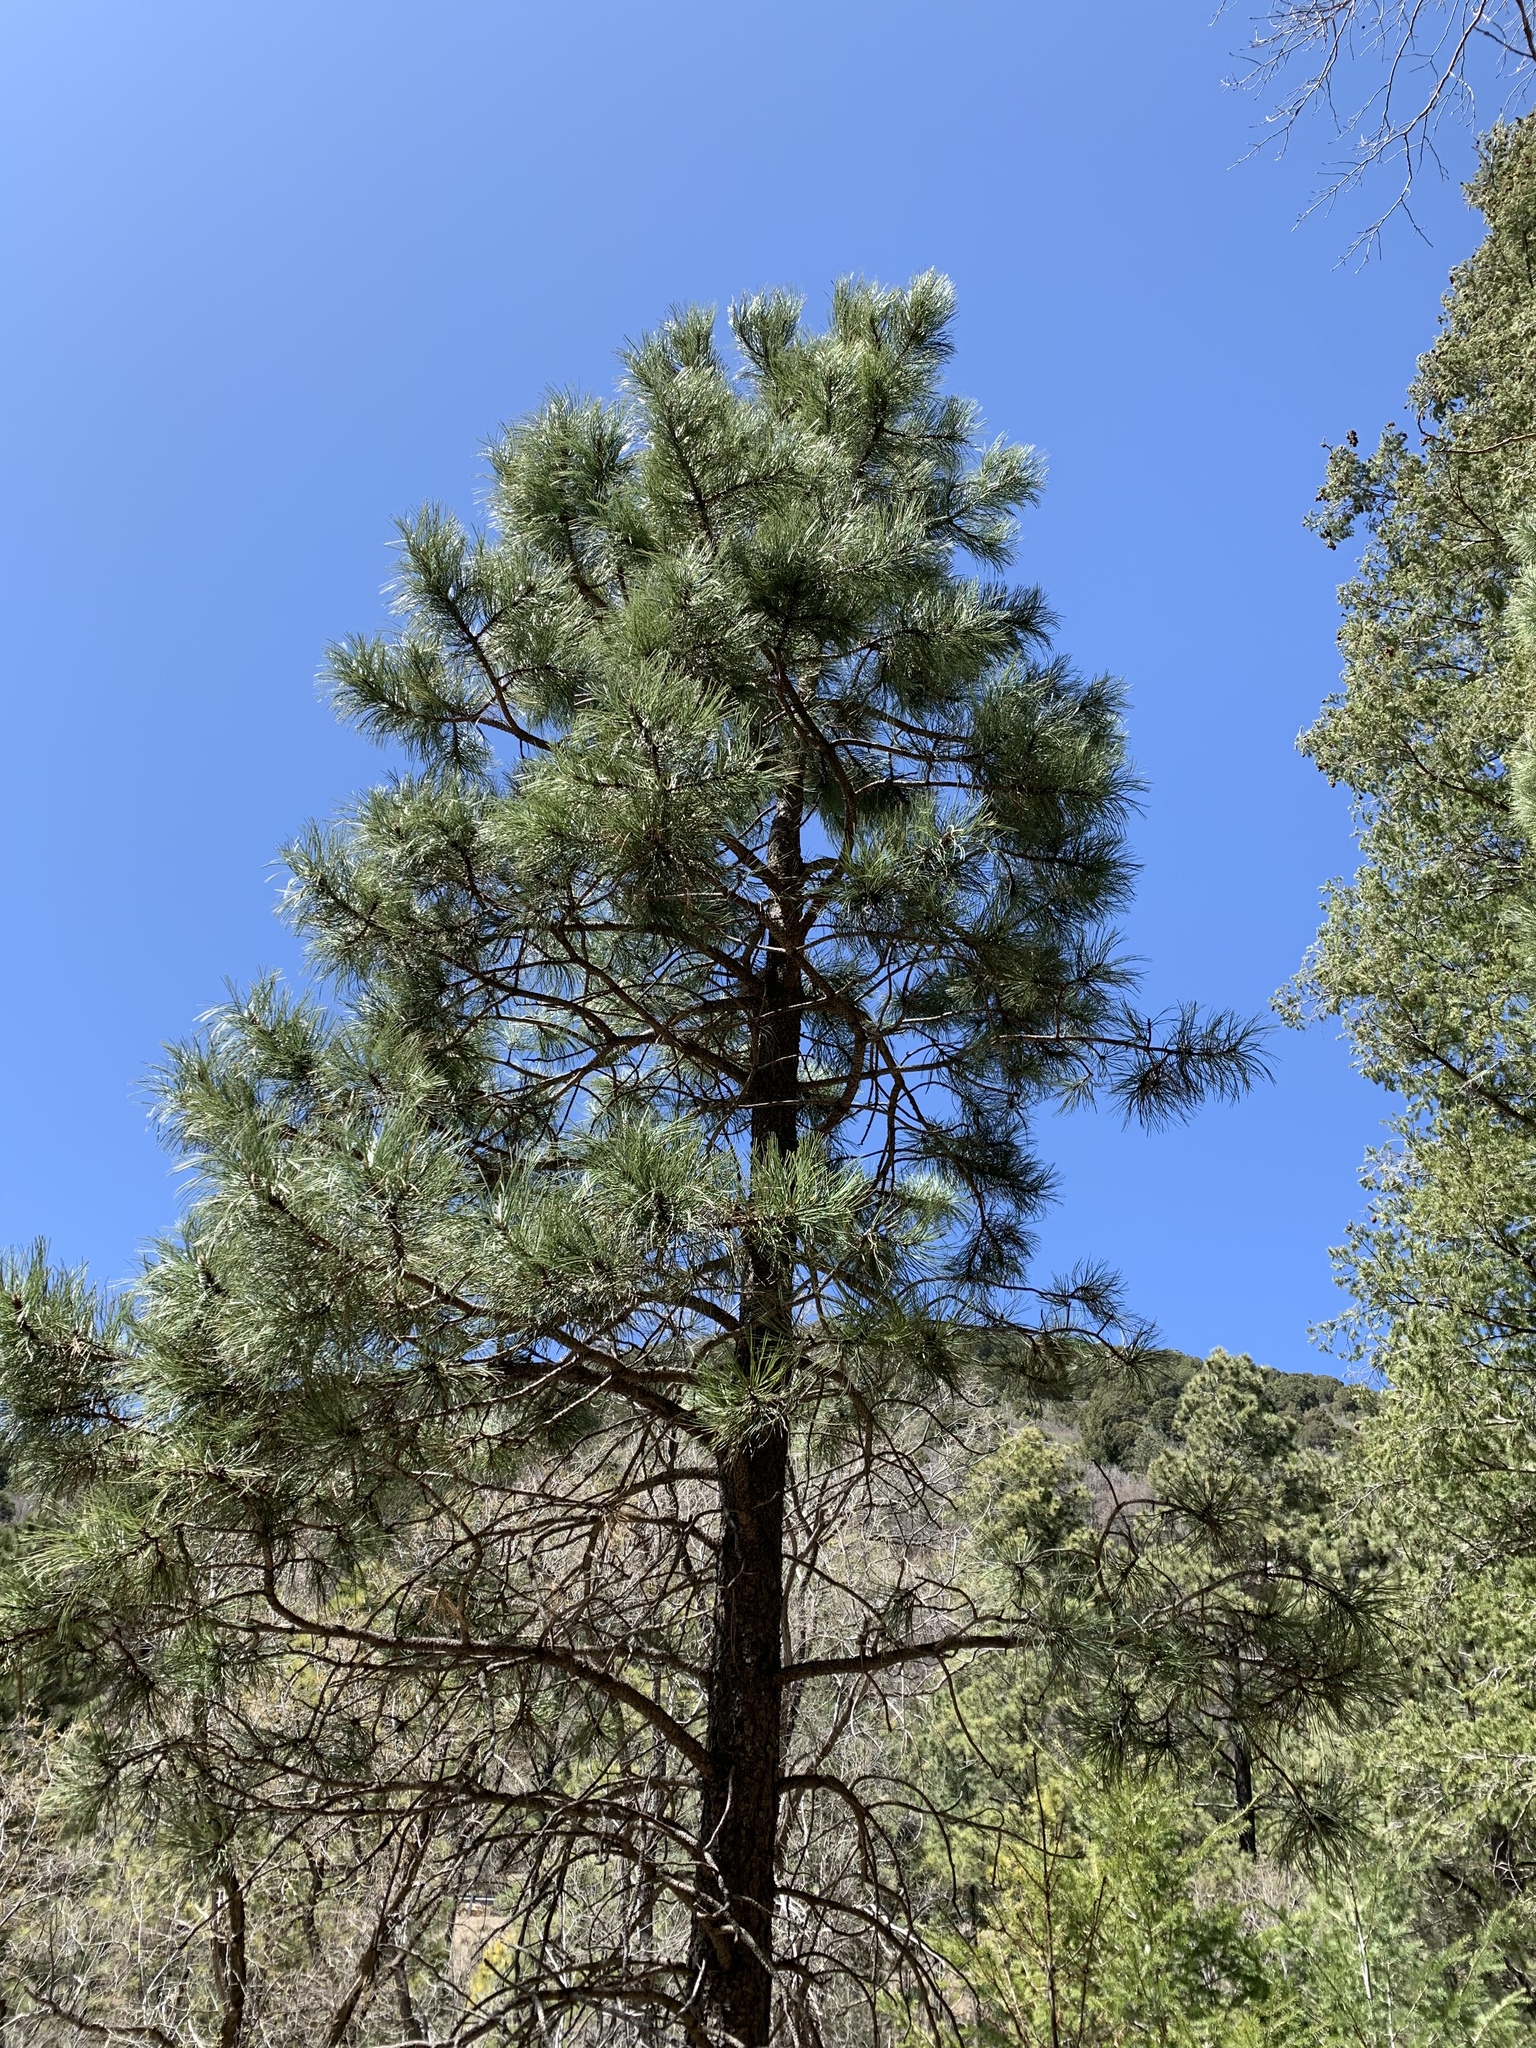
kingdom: Plantae
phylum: Tracheophyta
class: Pinopsida
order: Pinales
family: Pinaceae
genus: Pinus
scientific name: Pinus ponderosa
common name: Western yellow-pine
